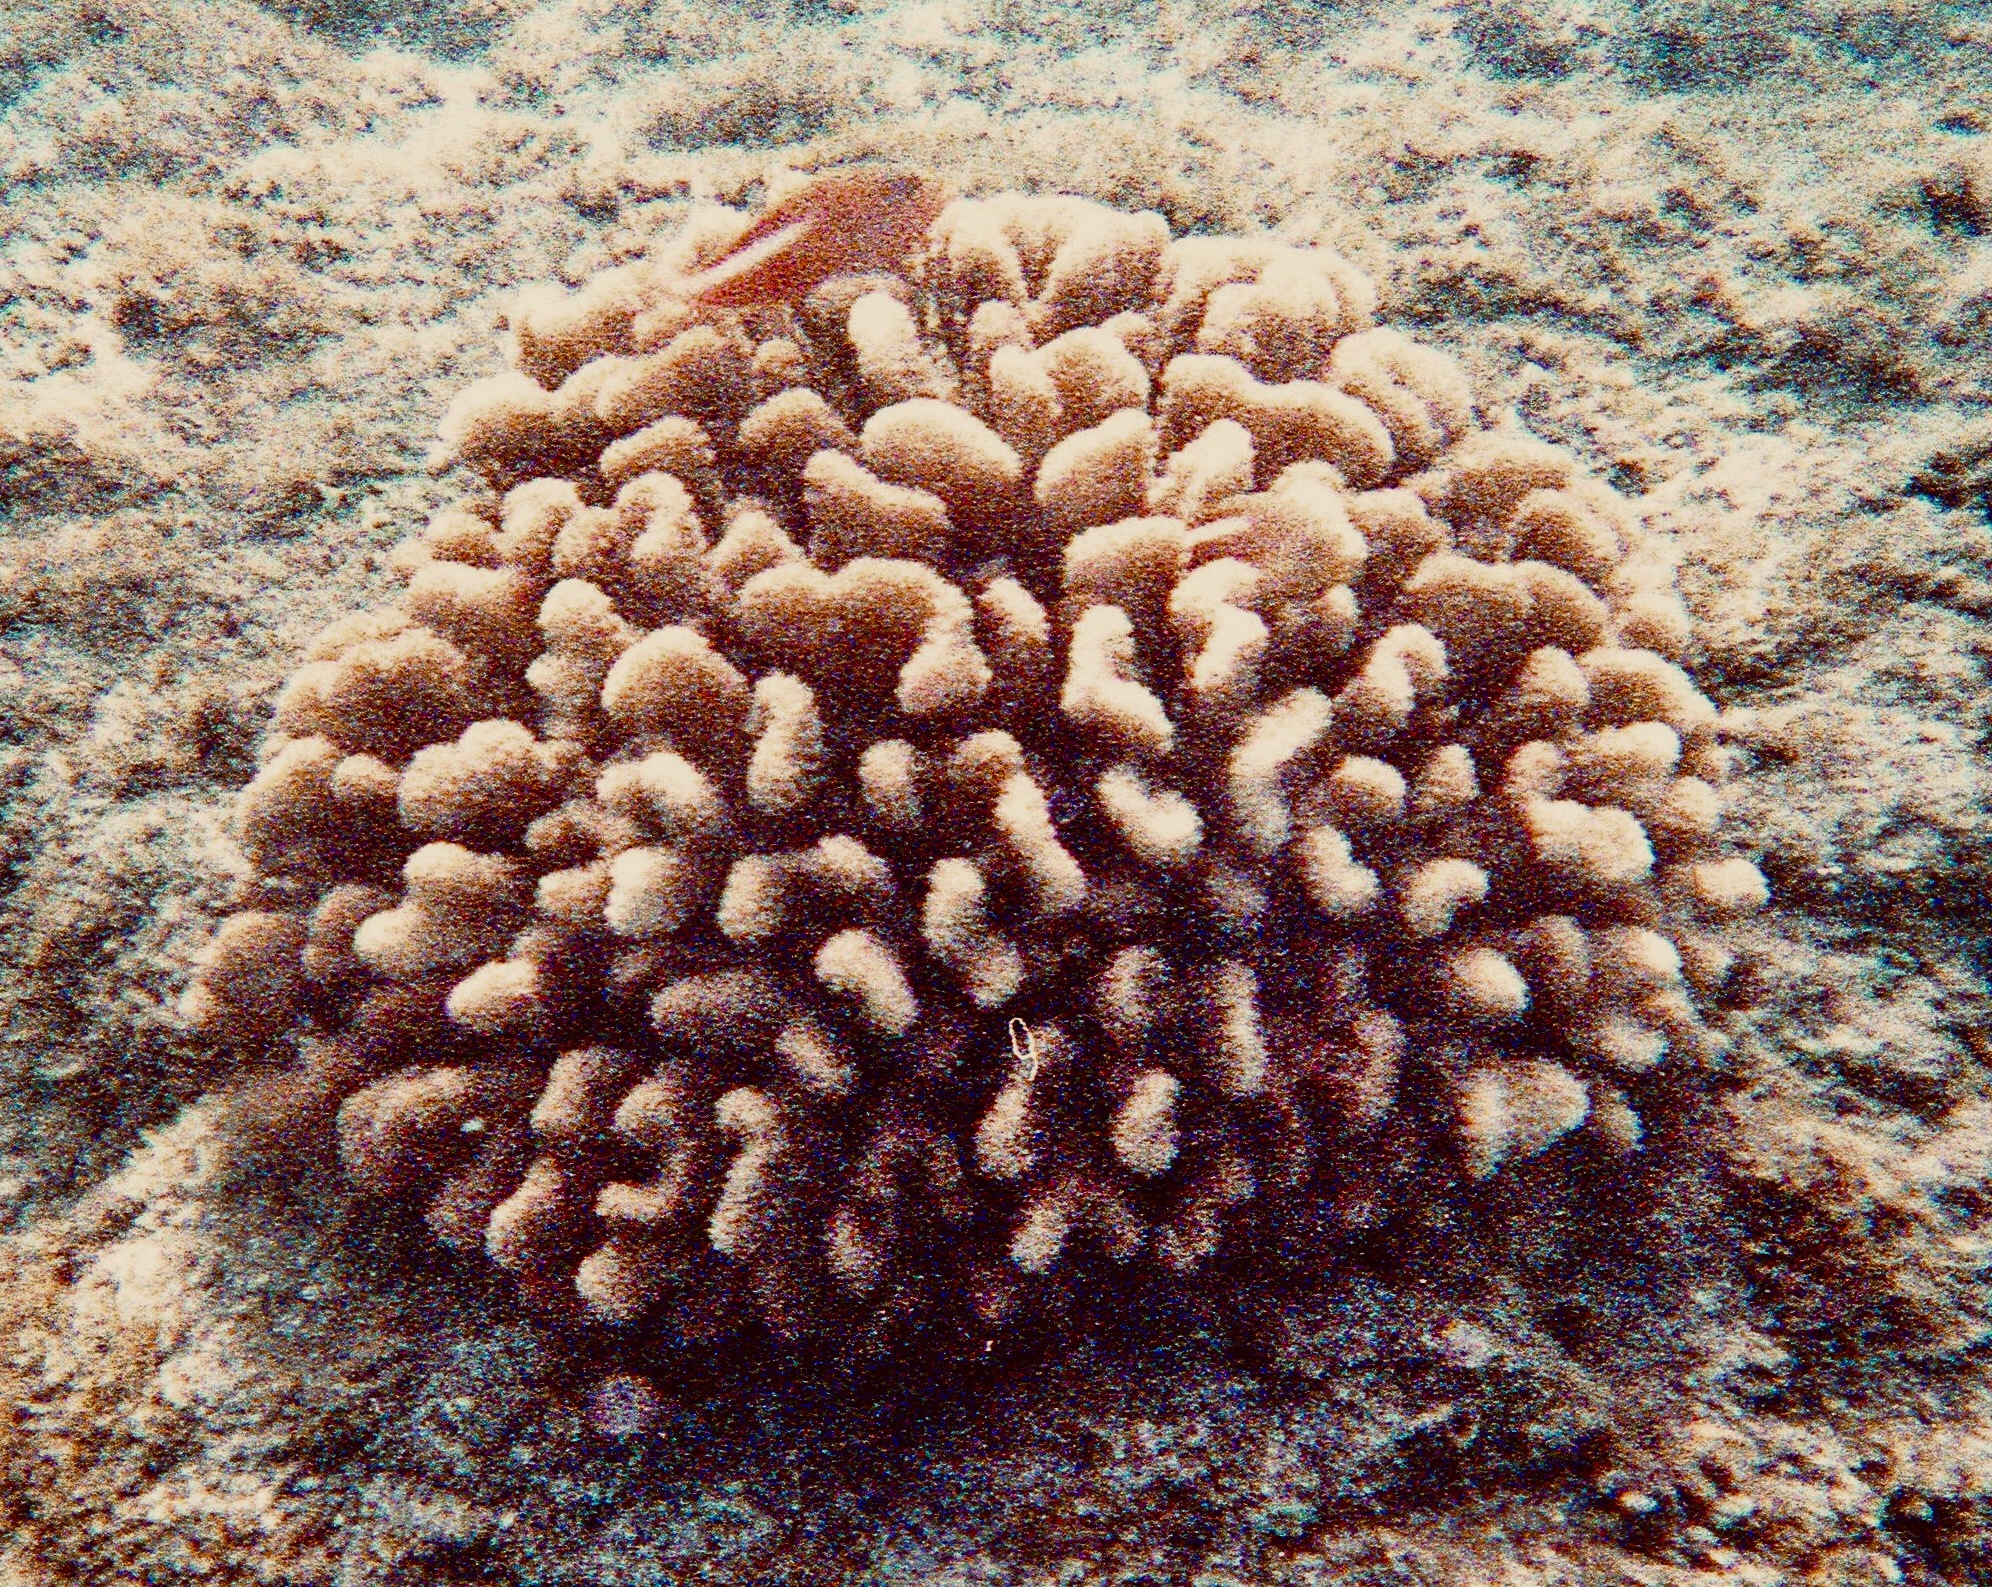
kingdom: Animalia
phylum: Chordata
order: Perciformes
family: Cirrhitidae
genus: Paracirrhites
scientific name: Paracirrhites arcatus
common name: Arc-eye hawkfish
